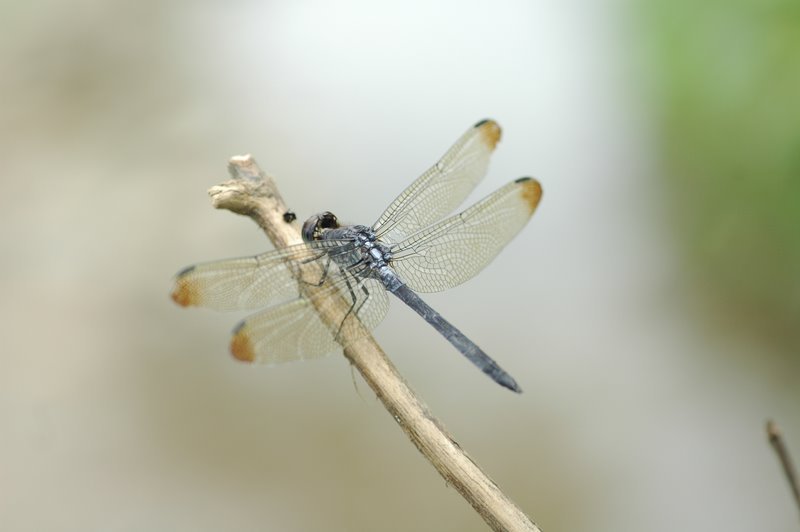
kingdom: Animalia
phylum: Arthropoda
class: Insecta
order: Odonata
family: Libellulidae
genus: Cratilla
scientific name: Cratilla metallica
